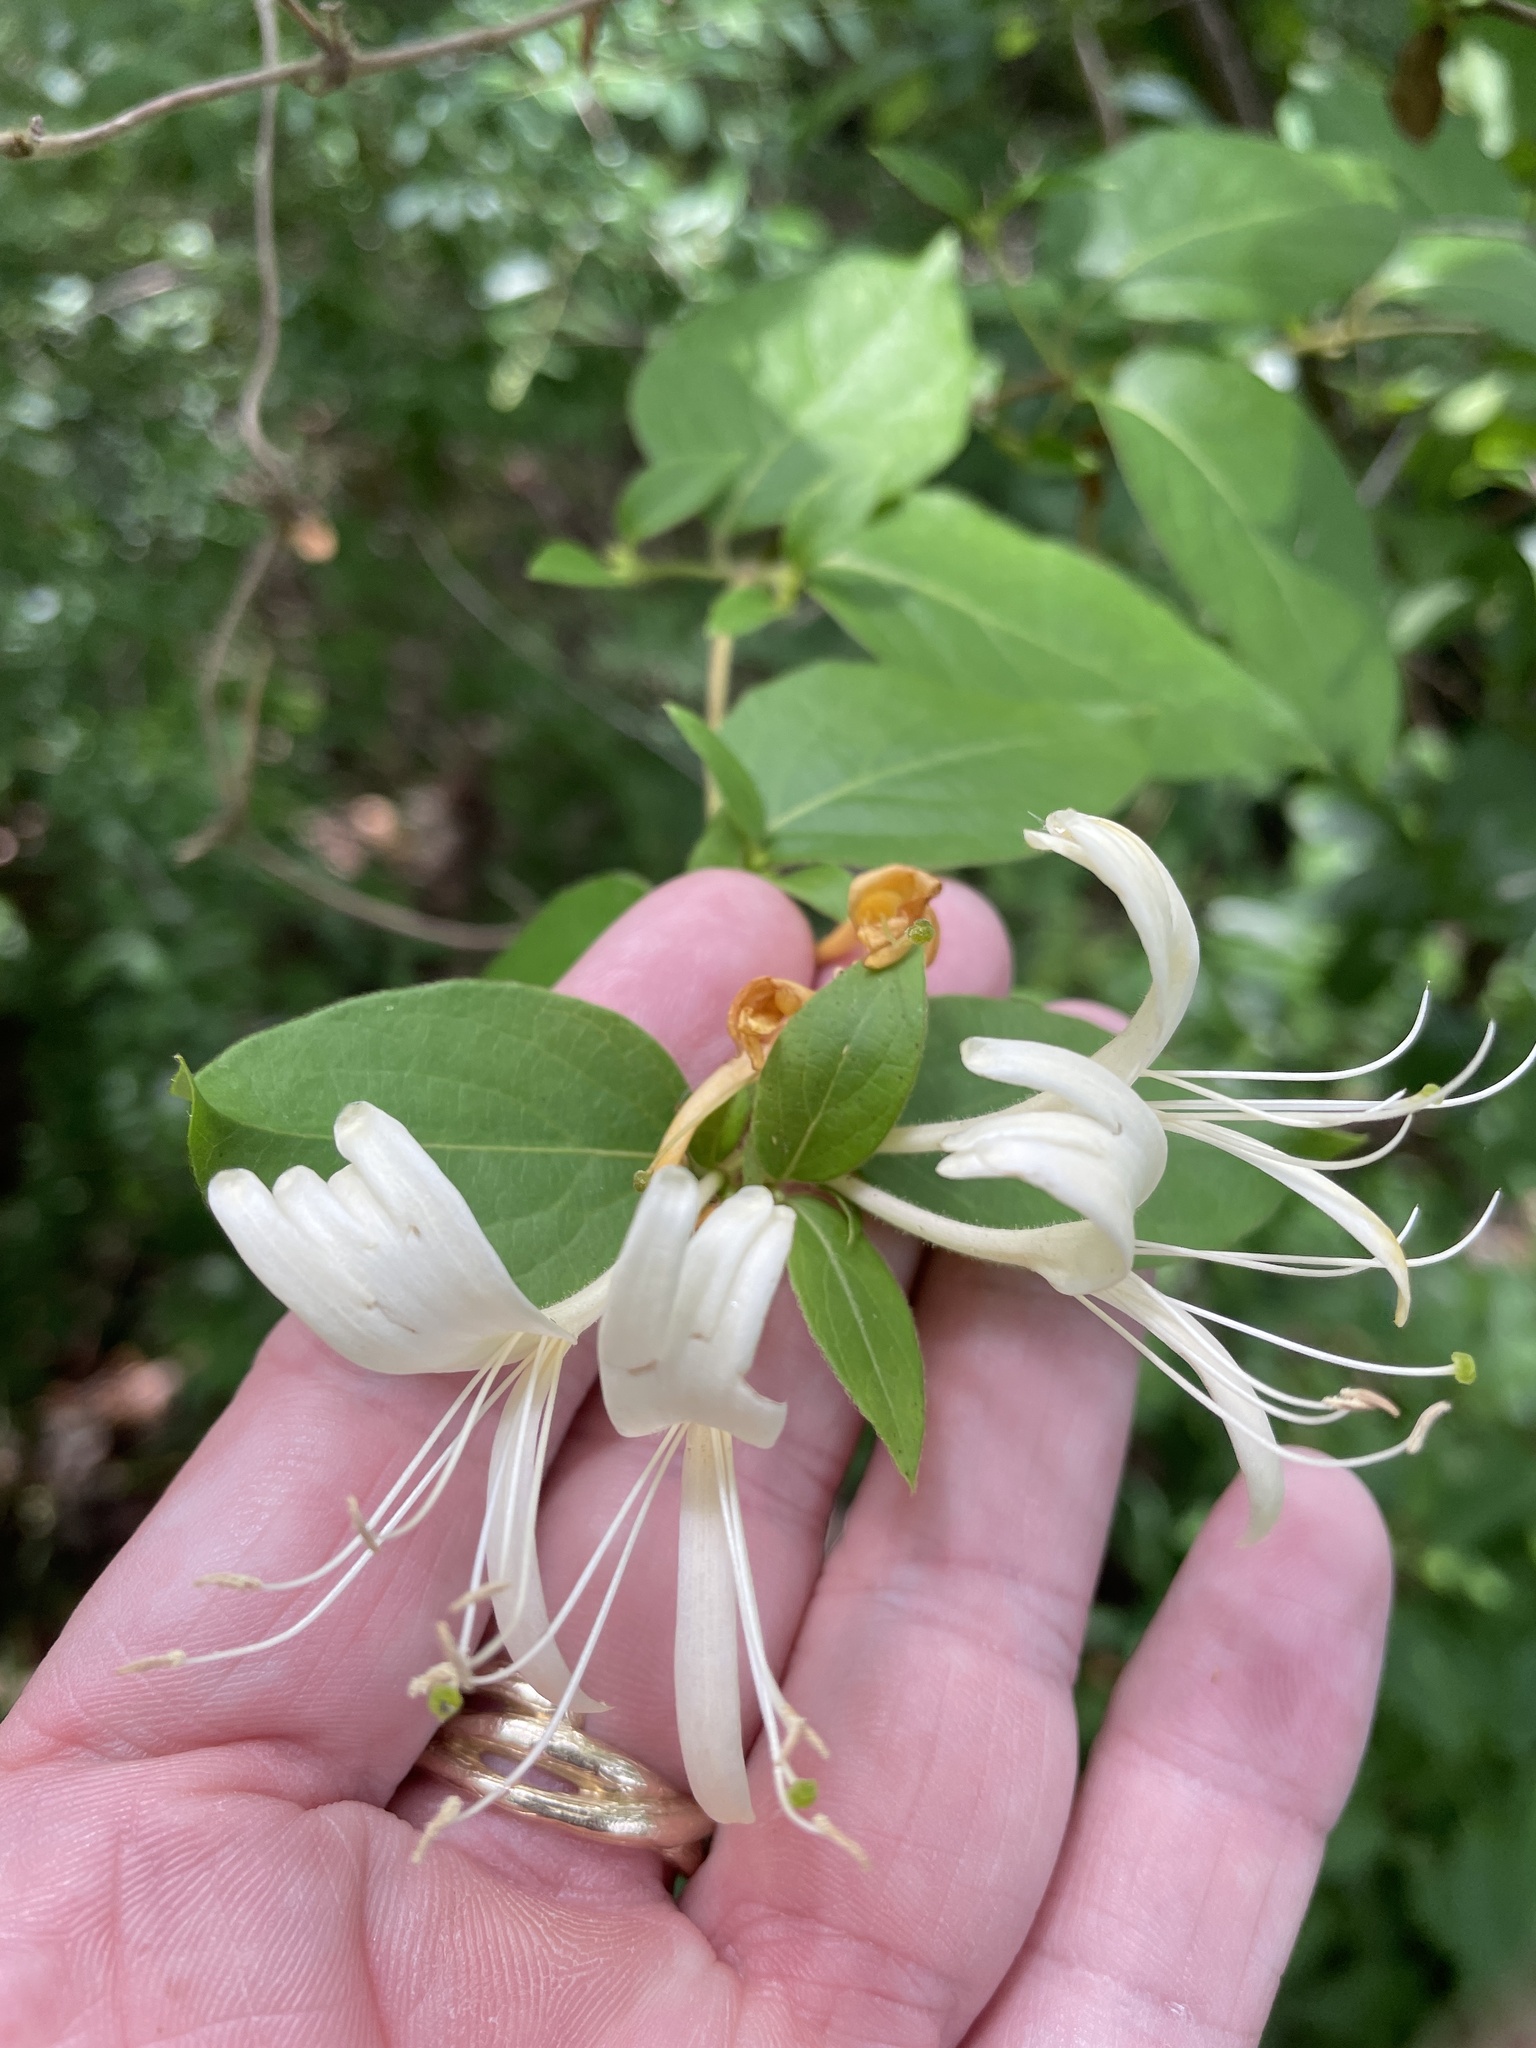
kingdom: Plantae
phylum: Tracheophyta
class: Magnoliopsida
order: Dipsacales
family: Caprifoliaceae
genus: Lonicera
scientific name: Lonicera japonica
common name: Japanese honeysuckle
